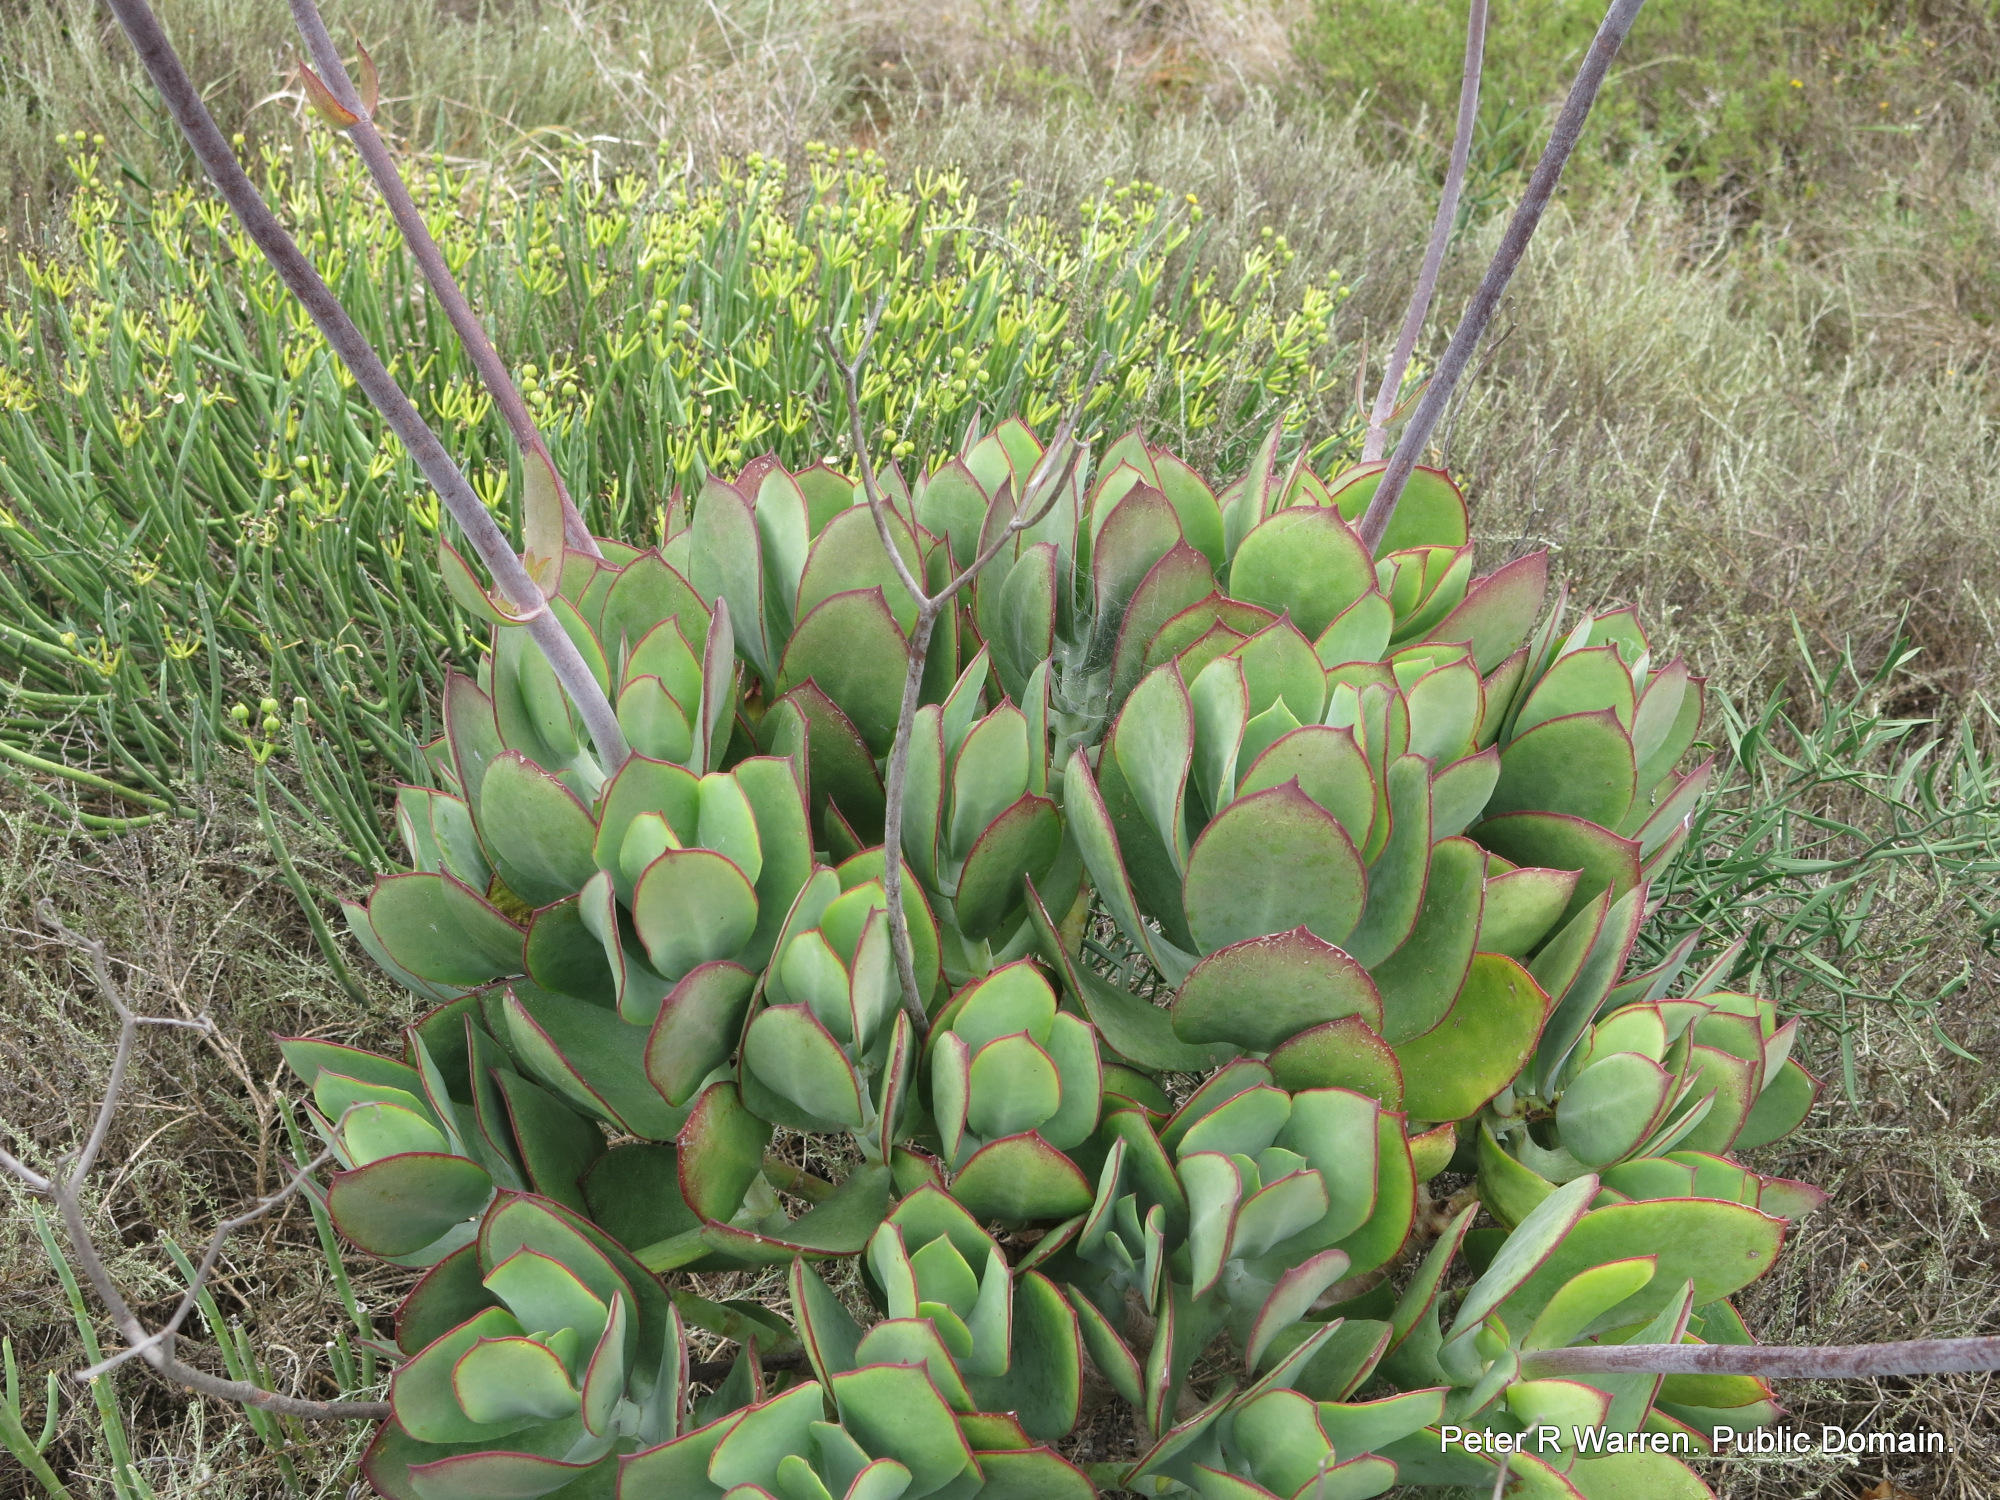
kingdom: Plantae
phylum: Tracheophyta
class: Magnoliopsida
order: Saxifragales
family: Crassulaceae
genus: Cotyledon
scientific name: Cotyledon velutina
